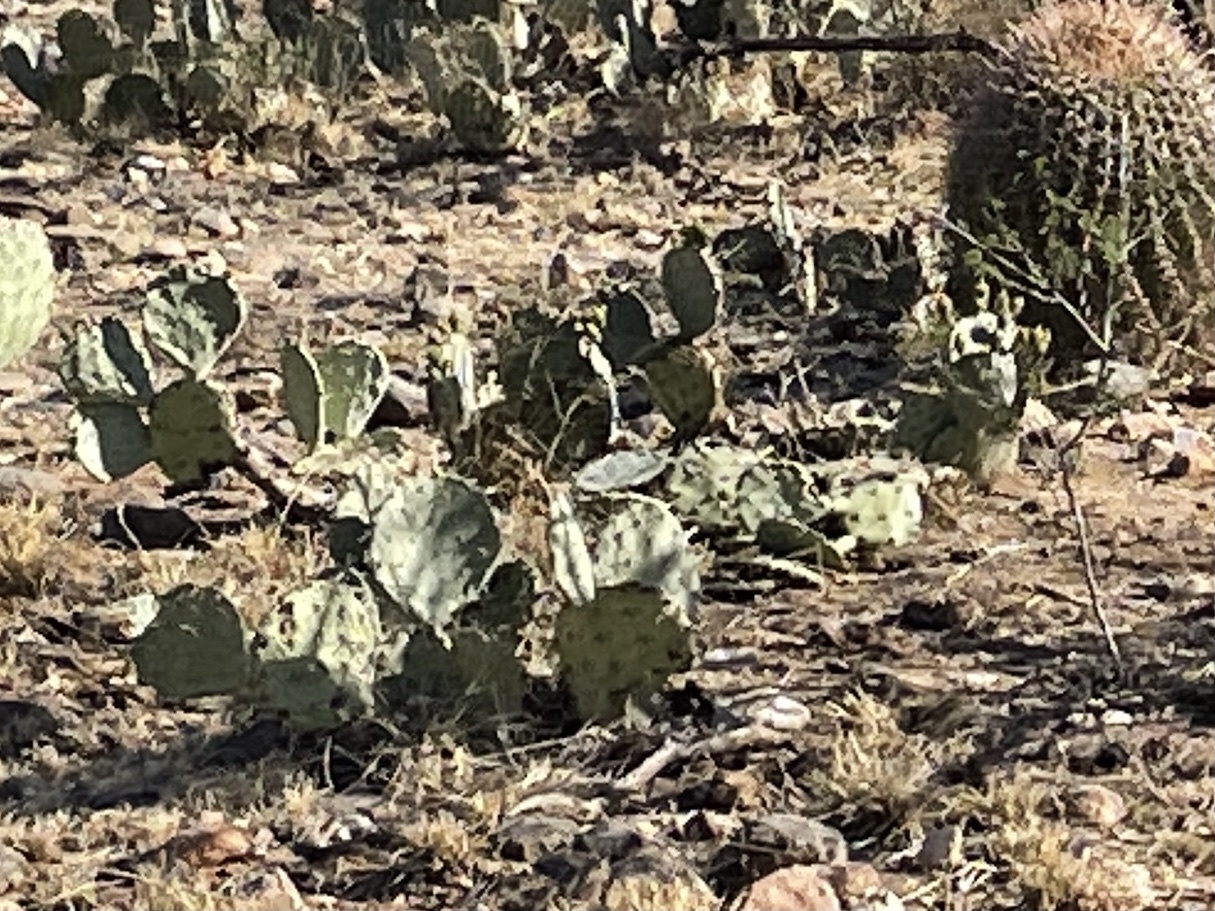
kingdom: Plantae
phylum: Tracheophyta
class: Magnoliopsida
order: Caryophyllales
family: Cactaceae
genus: Opuntia
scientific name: Opuntia phaeacantha
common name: New mexico prickly-pear
